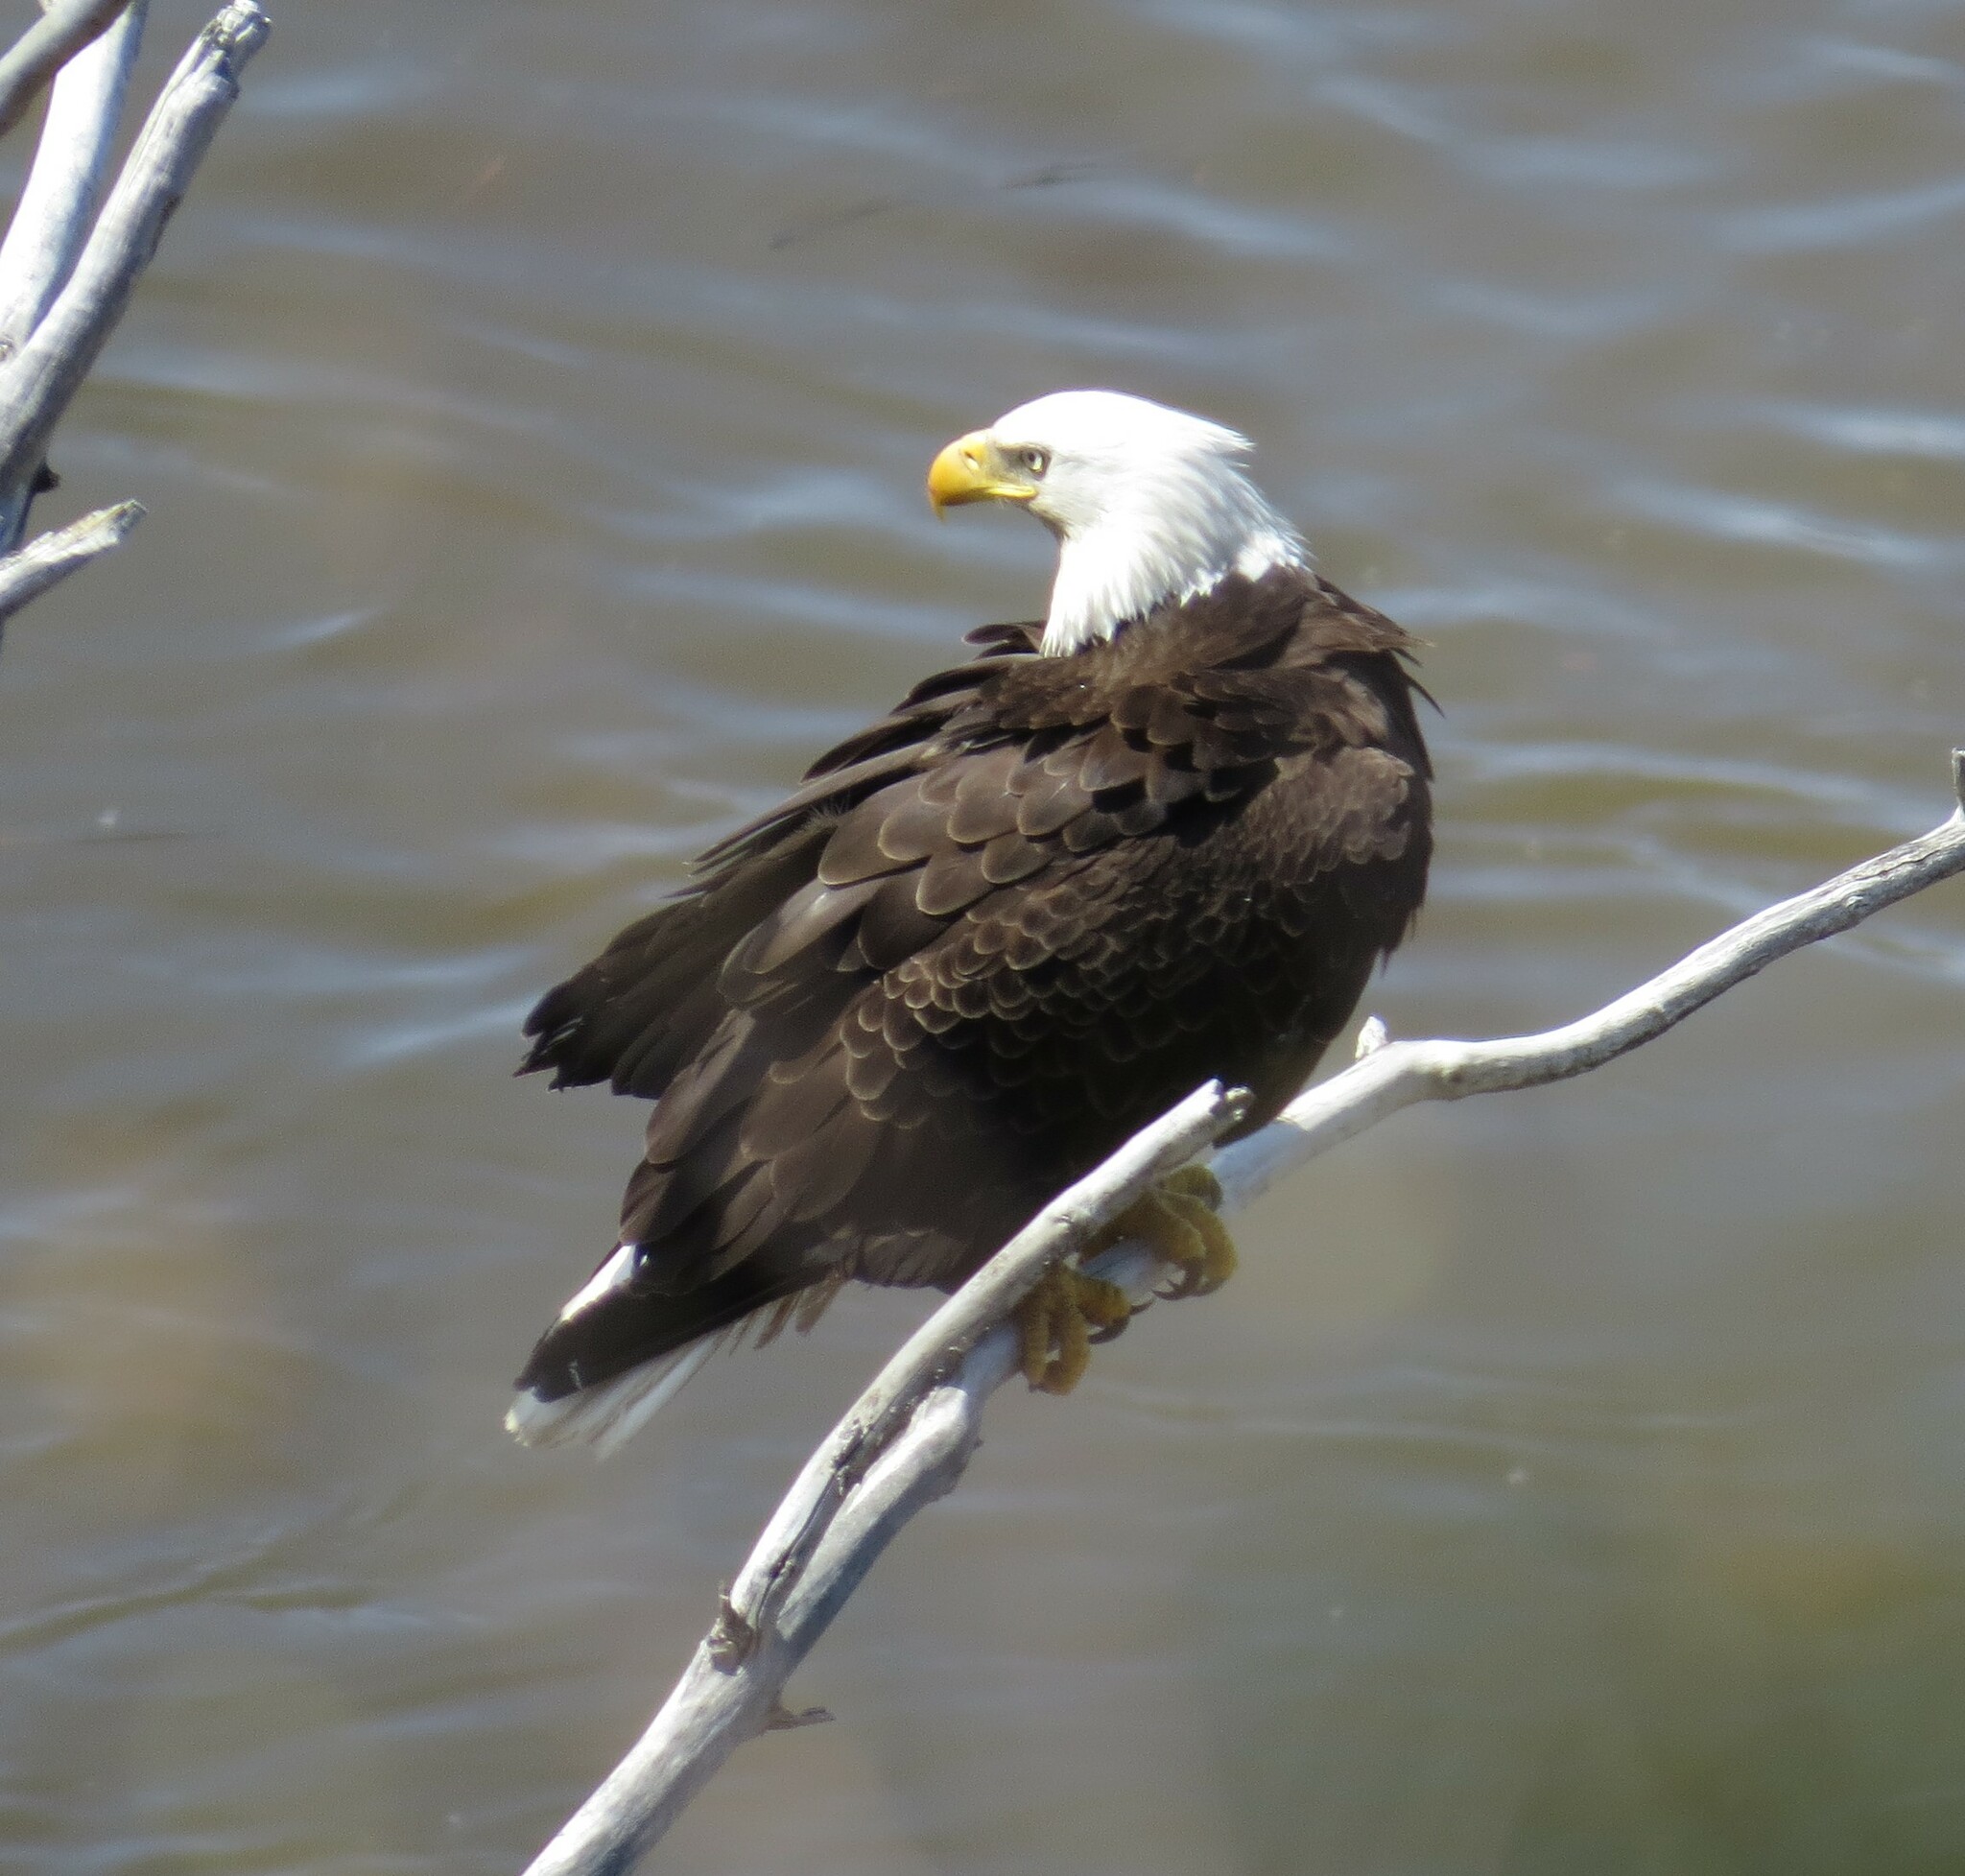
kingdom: Animalia
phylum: Chordata
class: Aves
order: Accipitriformes
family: Accipitridae
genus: Haliaeetus
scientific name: Haliaeetus leucocephalus
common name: Bald eagle
